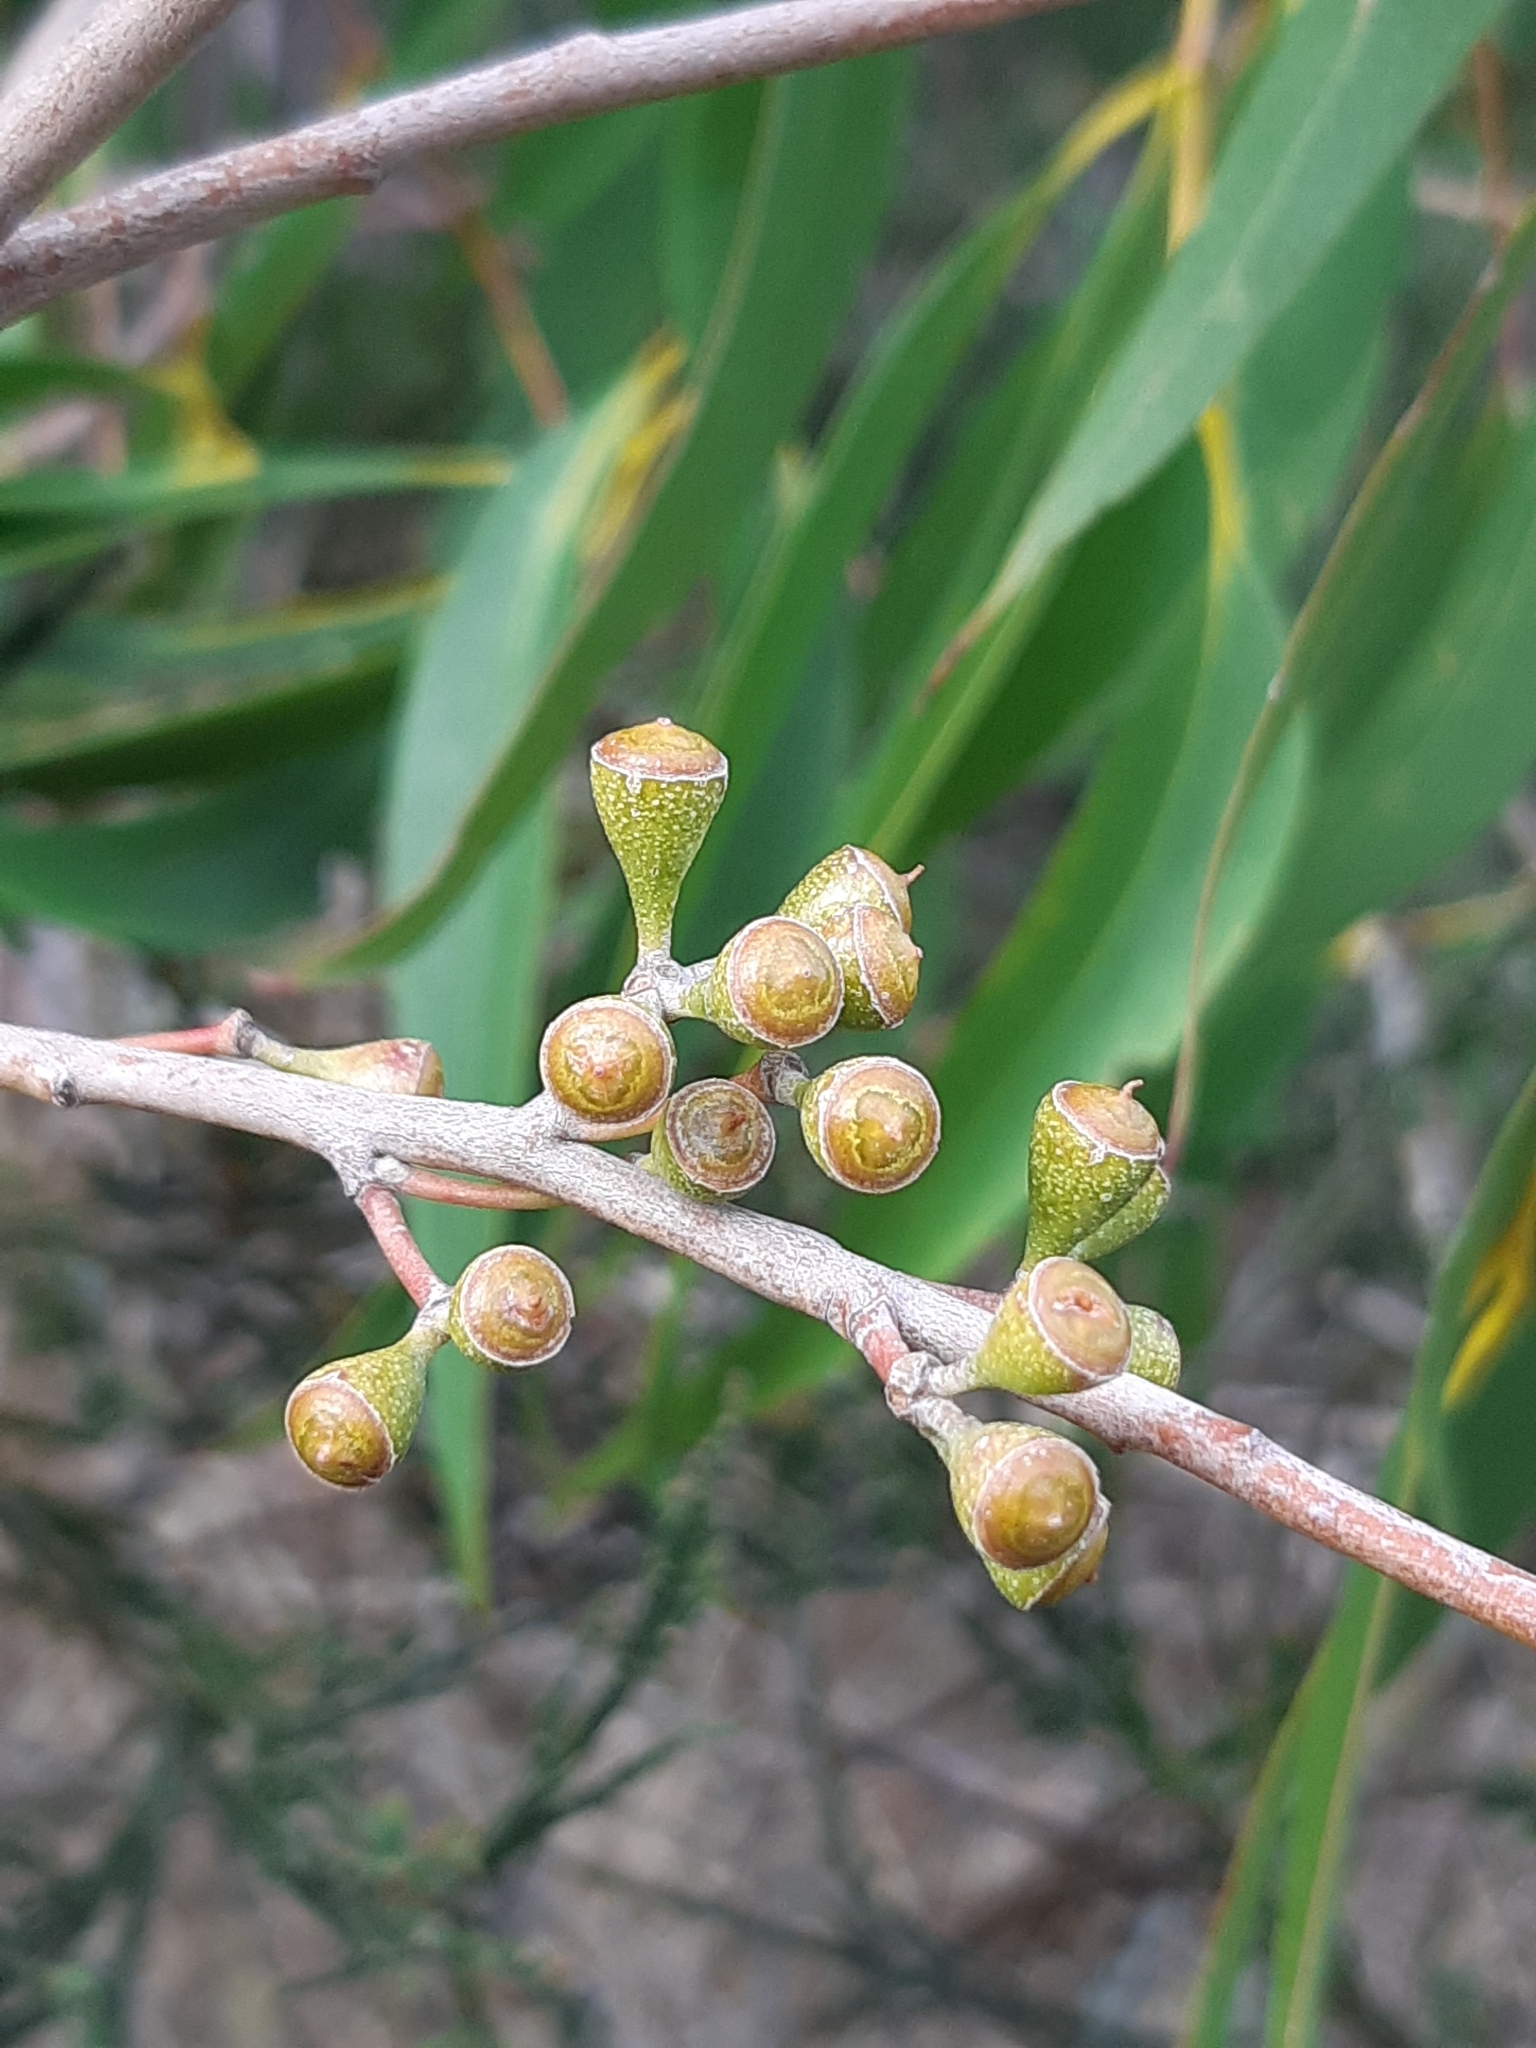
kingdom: Plantae
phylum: Tracheophyta
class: Magnoliopsida
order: Myrtales
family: Myrtaceae
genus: Eucalyptus
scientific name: Eucalyptus fastigata
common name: Brown barrel
